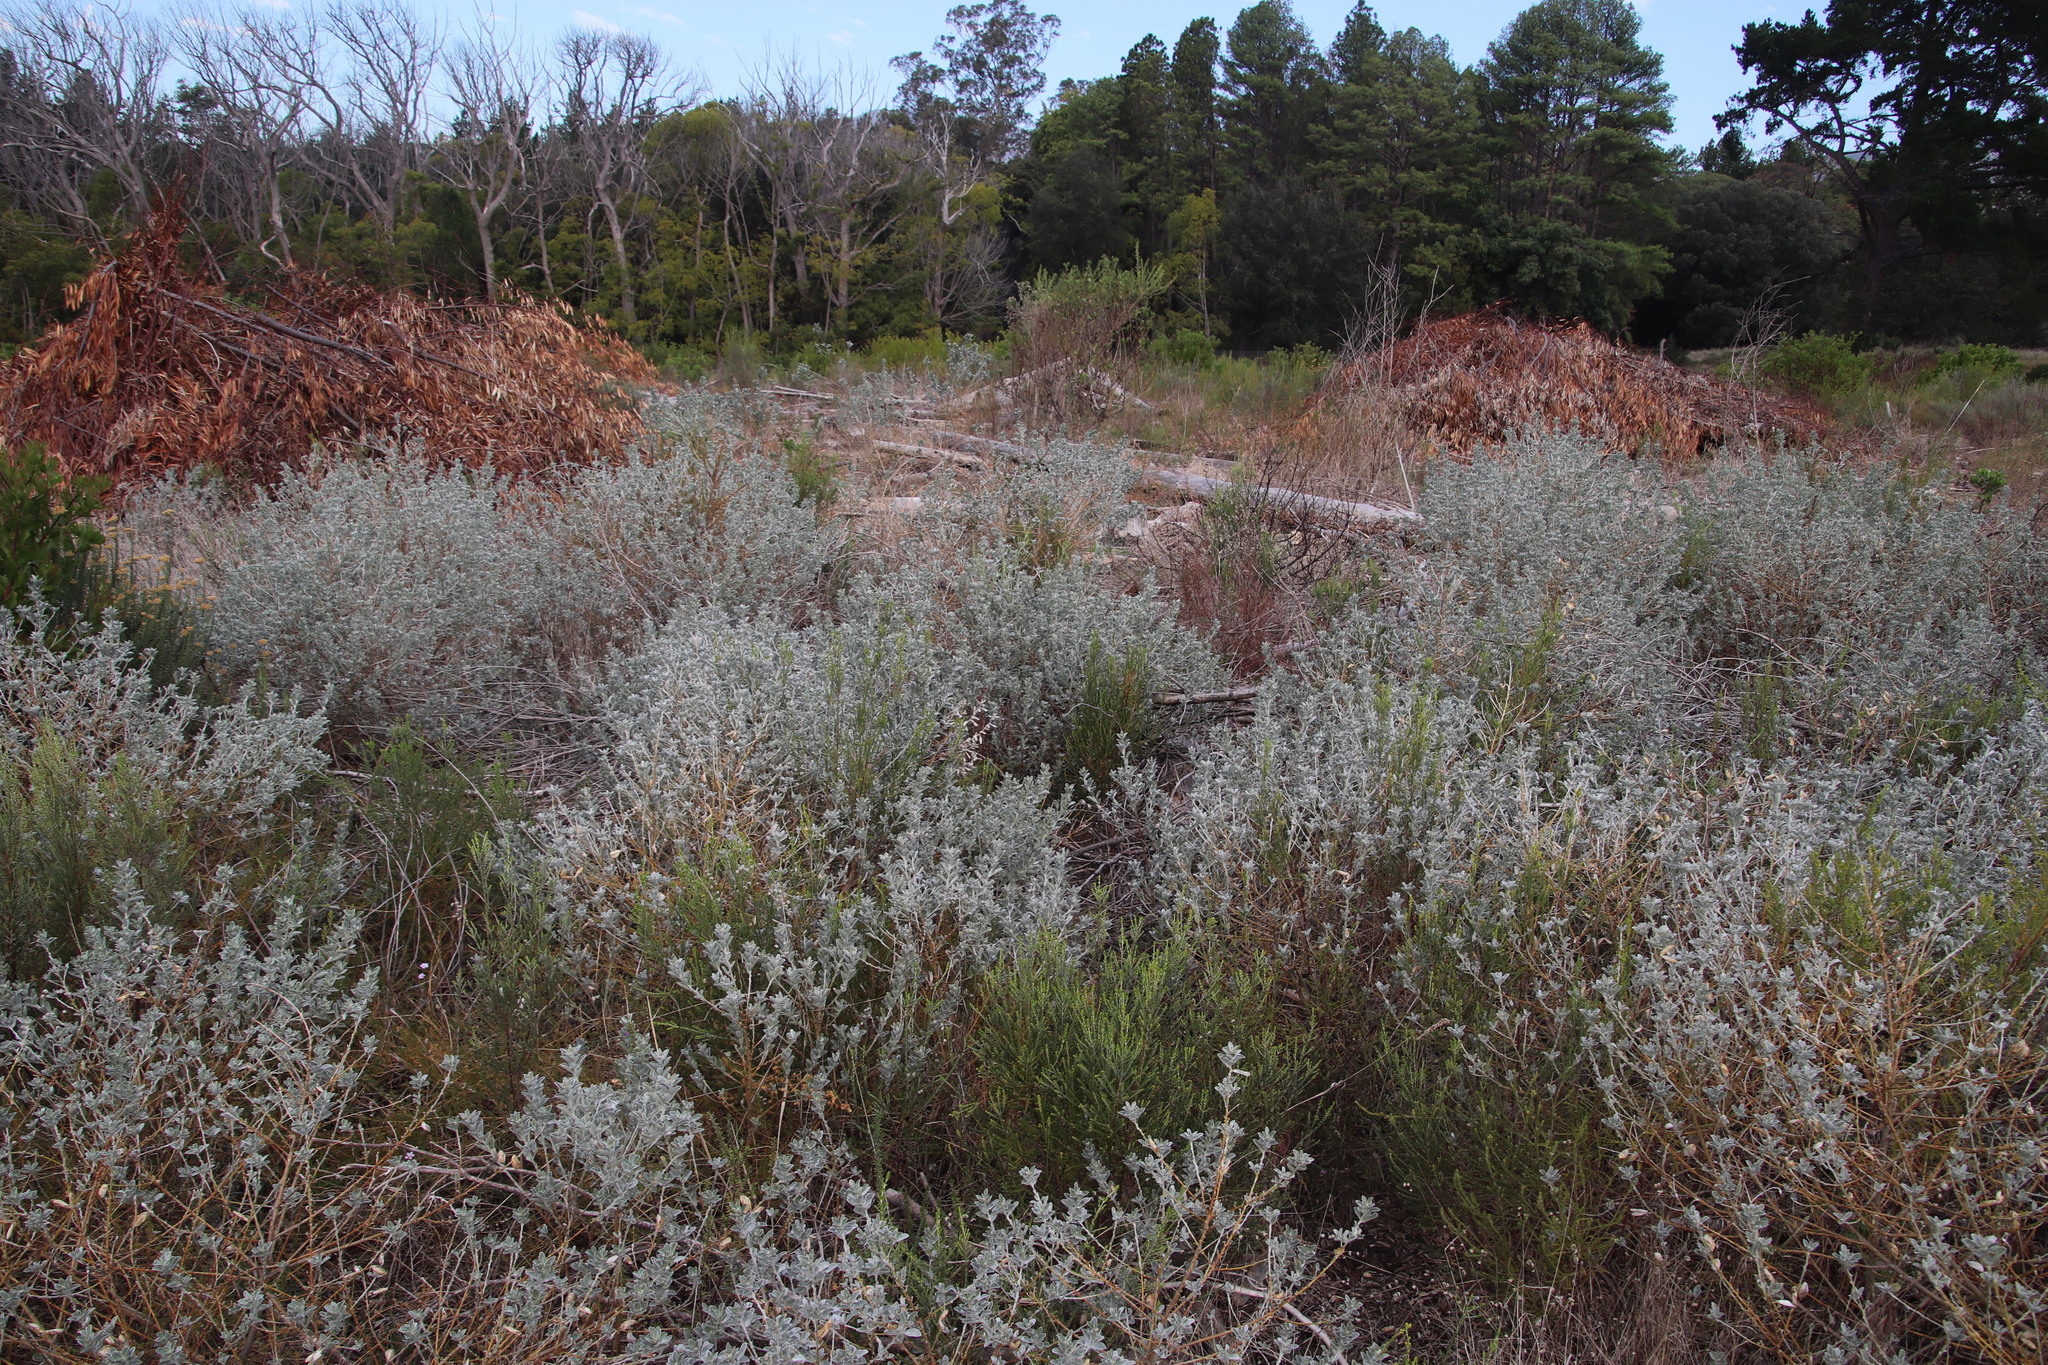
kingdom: Plantae
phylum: Tracheophyta
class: Magnoliopsida
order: Fabales
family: Fabaceae
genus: Podalyria
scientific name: Podalyria sericea
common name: Silver podalyria
